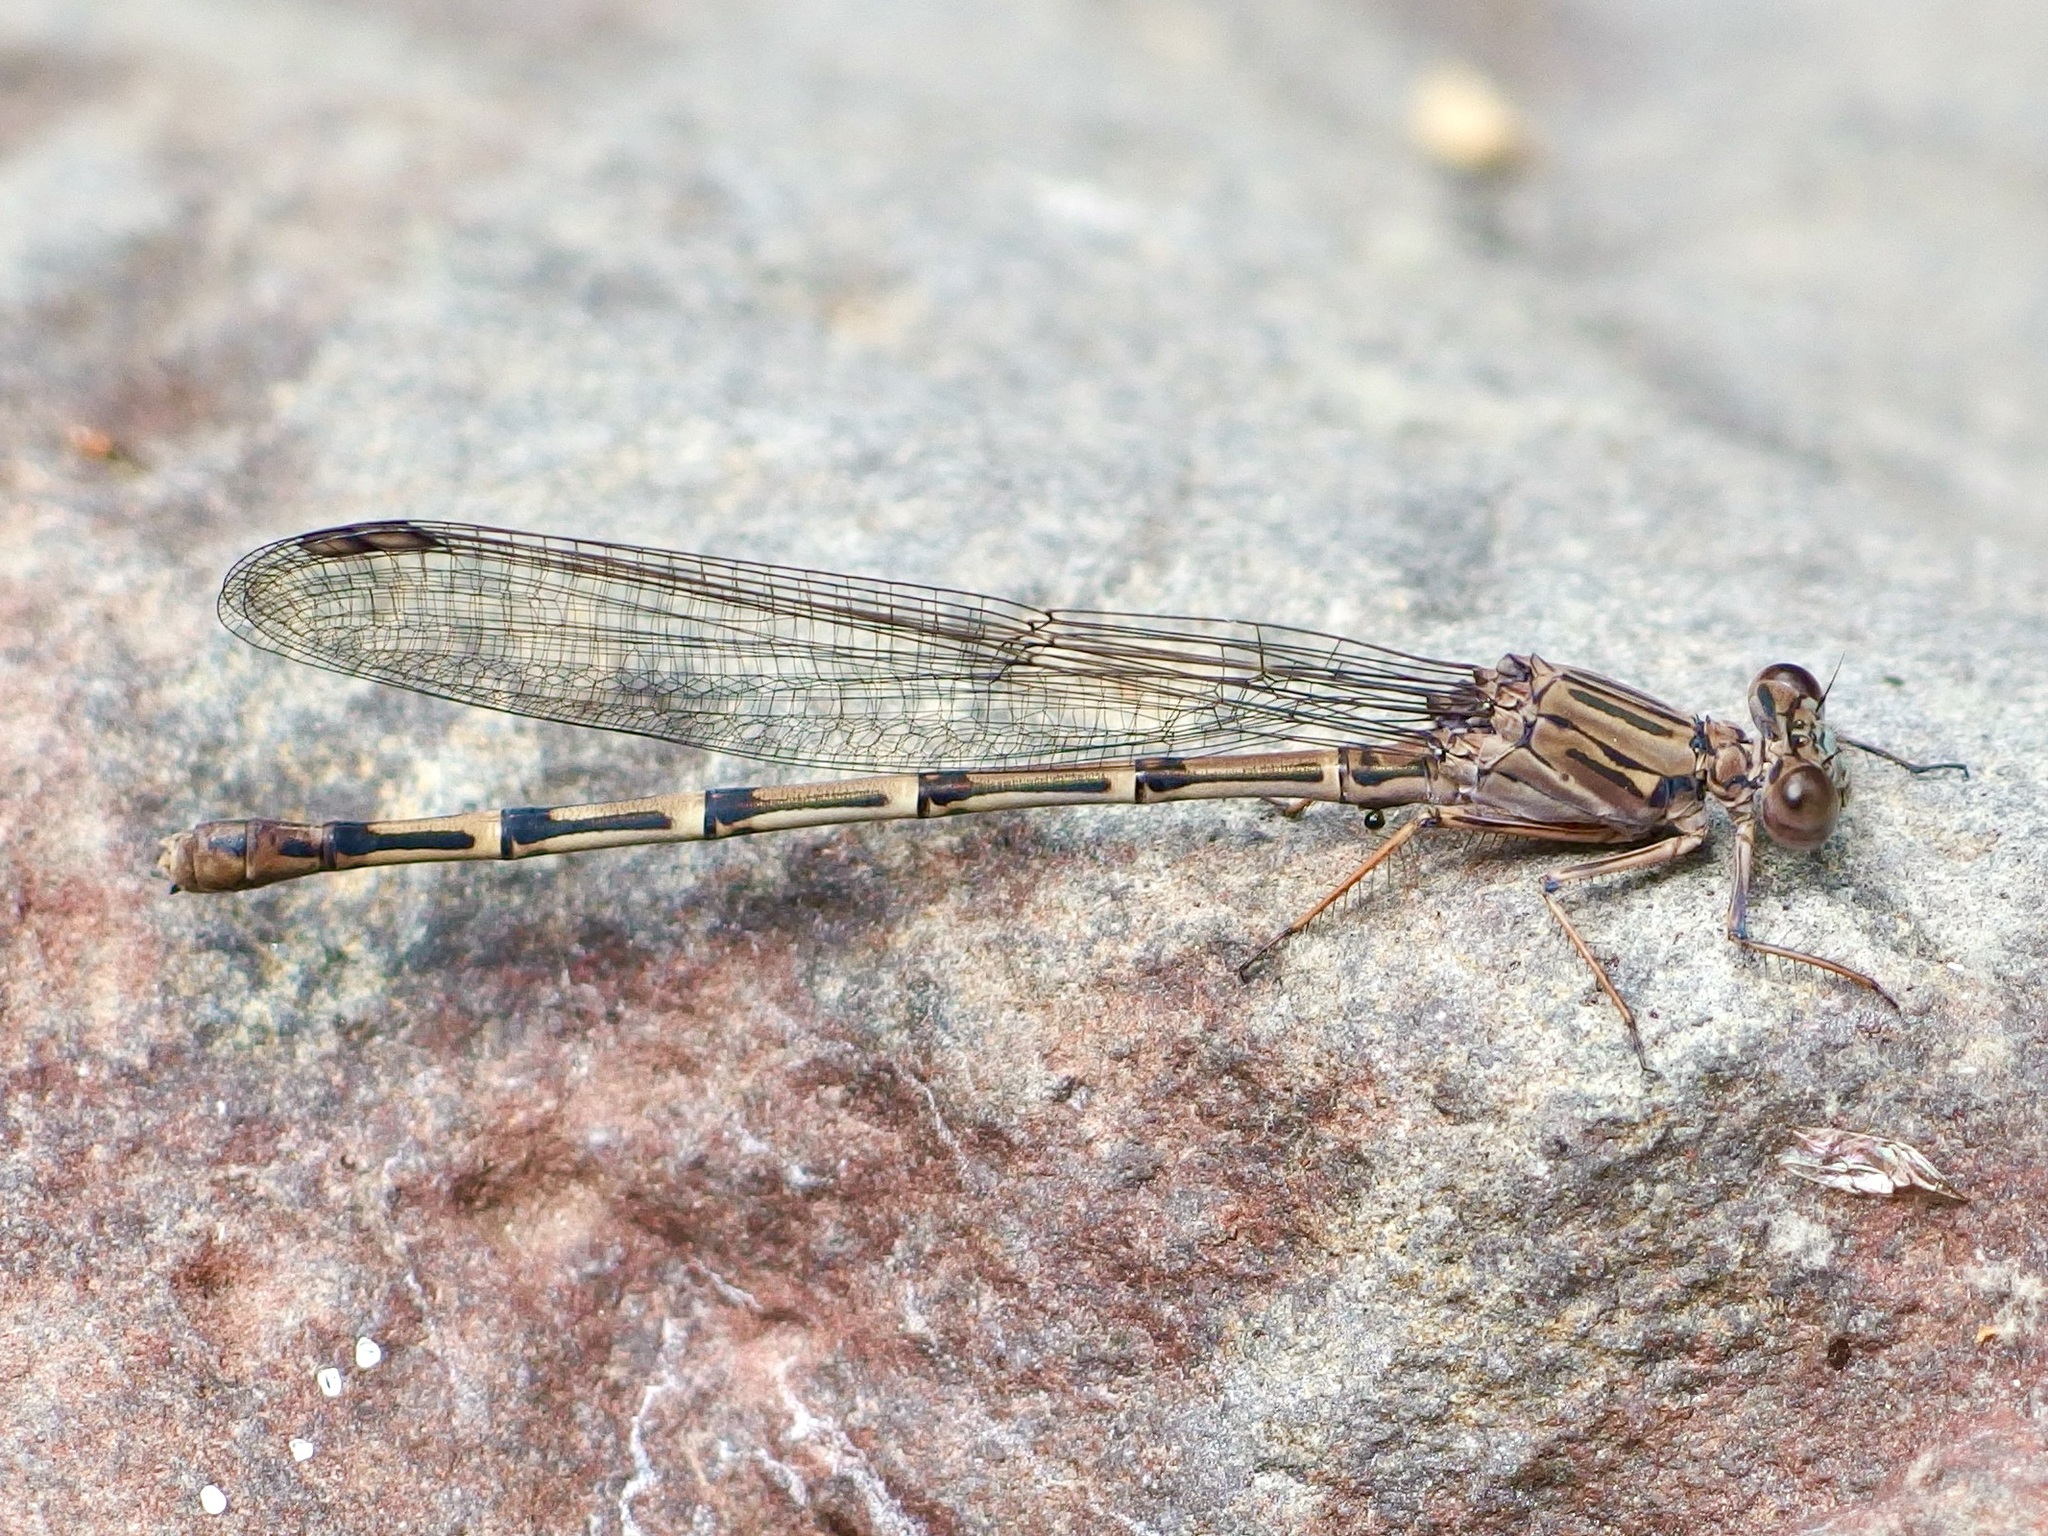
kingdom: Animalia
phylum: Arthropoda
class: Insecta
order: Odonata
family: Coenagrionidae
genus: Argia
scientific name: Argia lugens
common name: Sooty dancer
